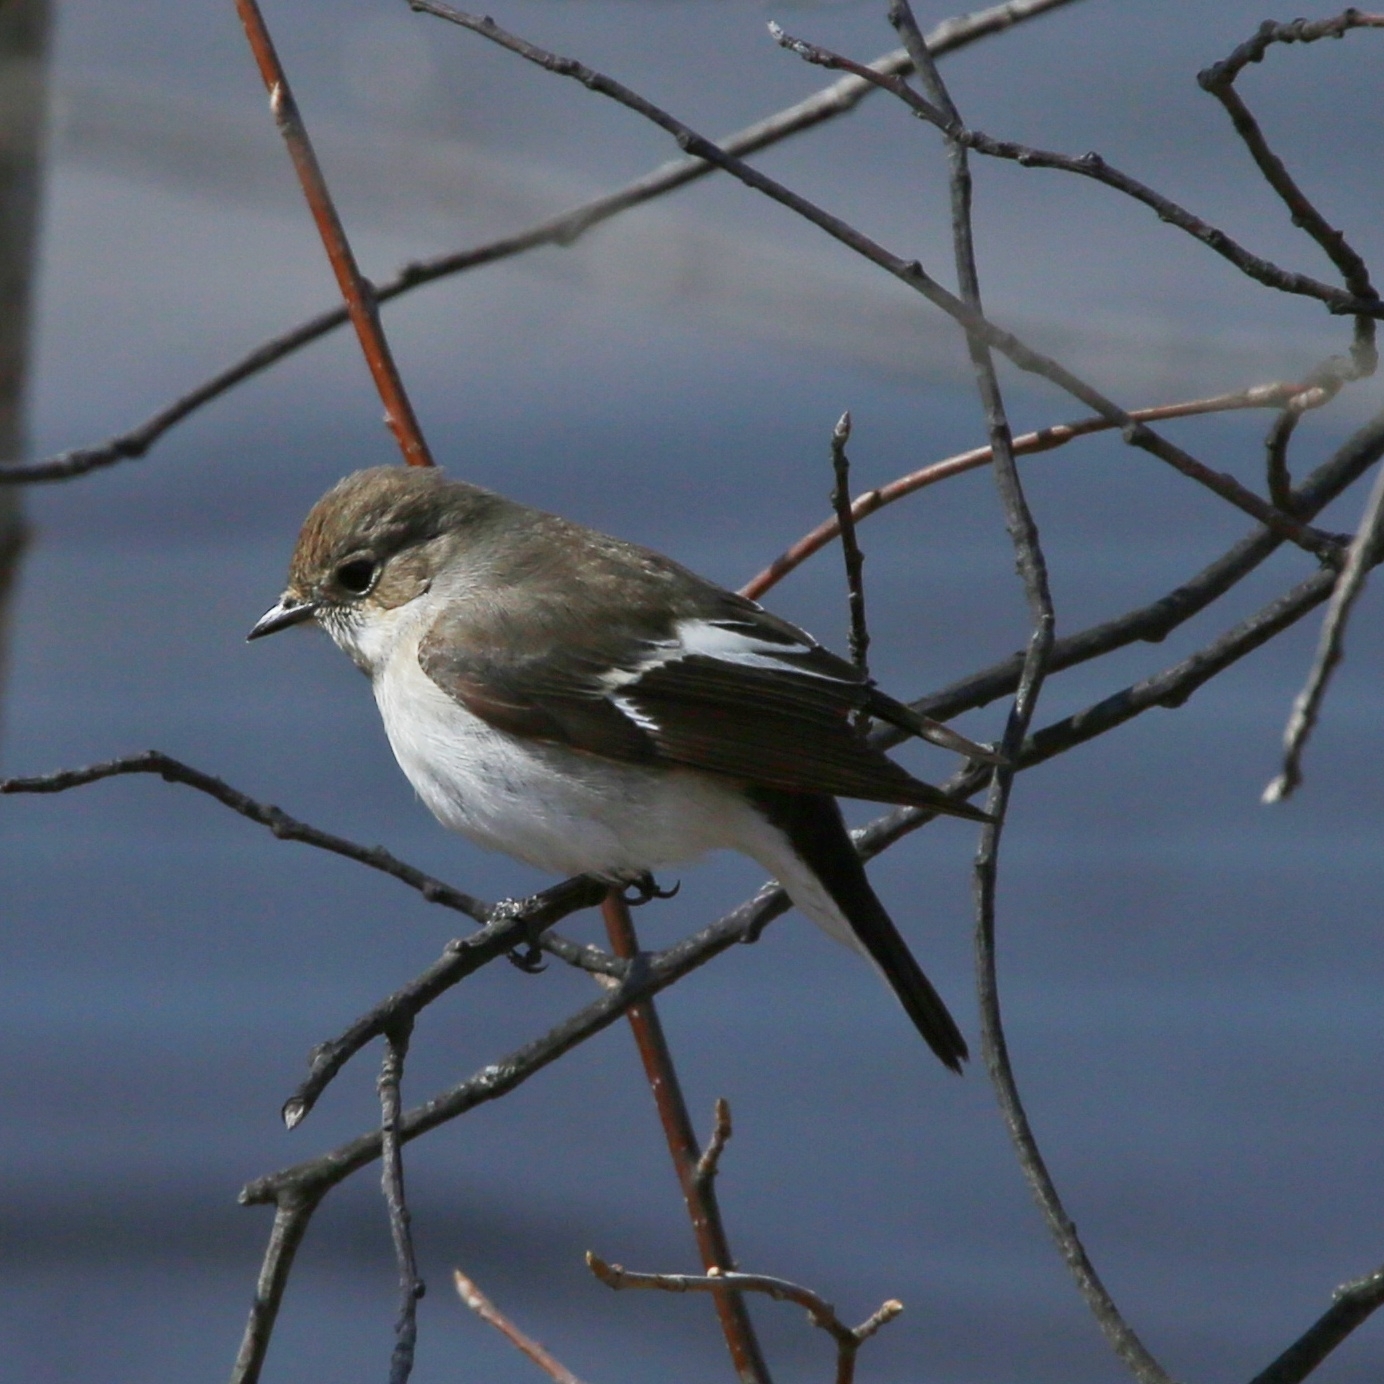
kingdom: Animalia
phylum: Chordata
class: Aves
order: Passeriformes
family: Muscicapidae
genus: Ficedula
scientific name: Ficedula hypoleuca
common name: European pied flycatcher
